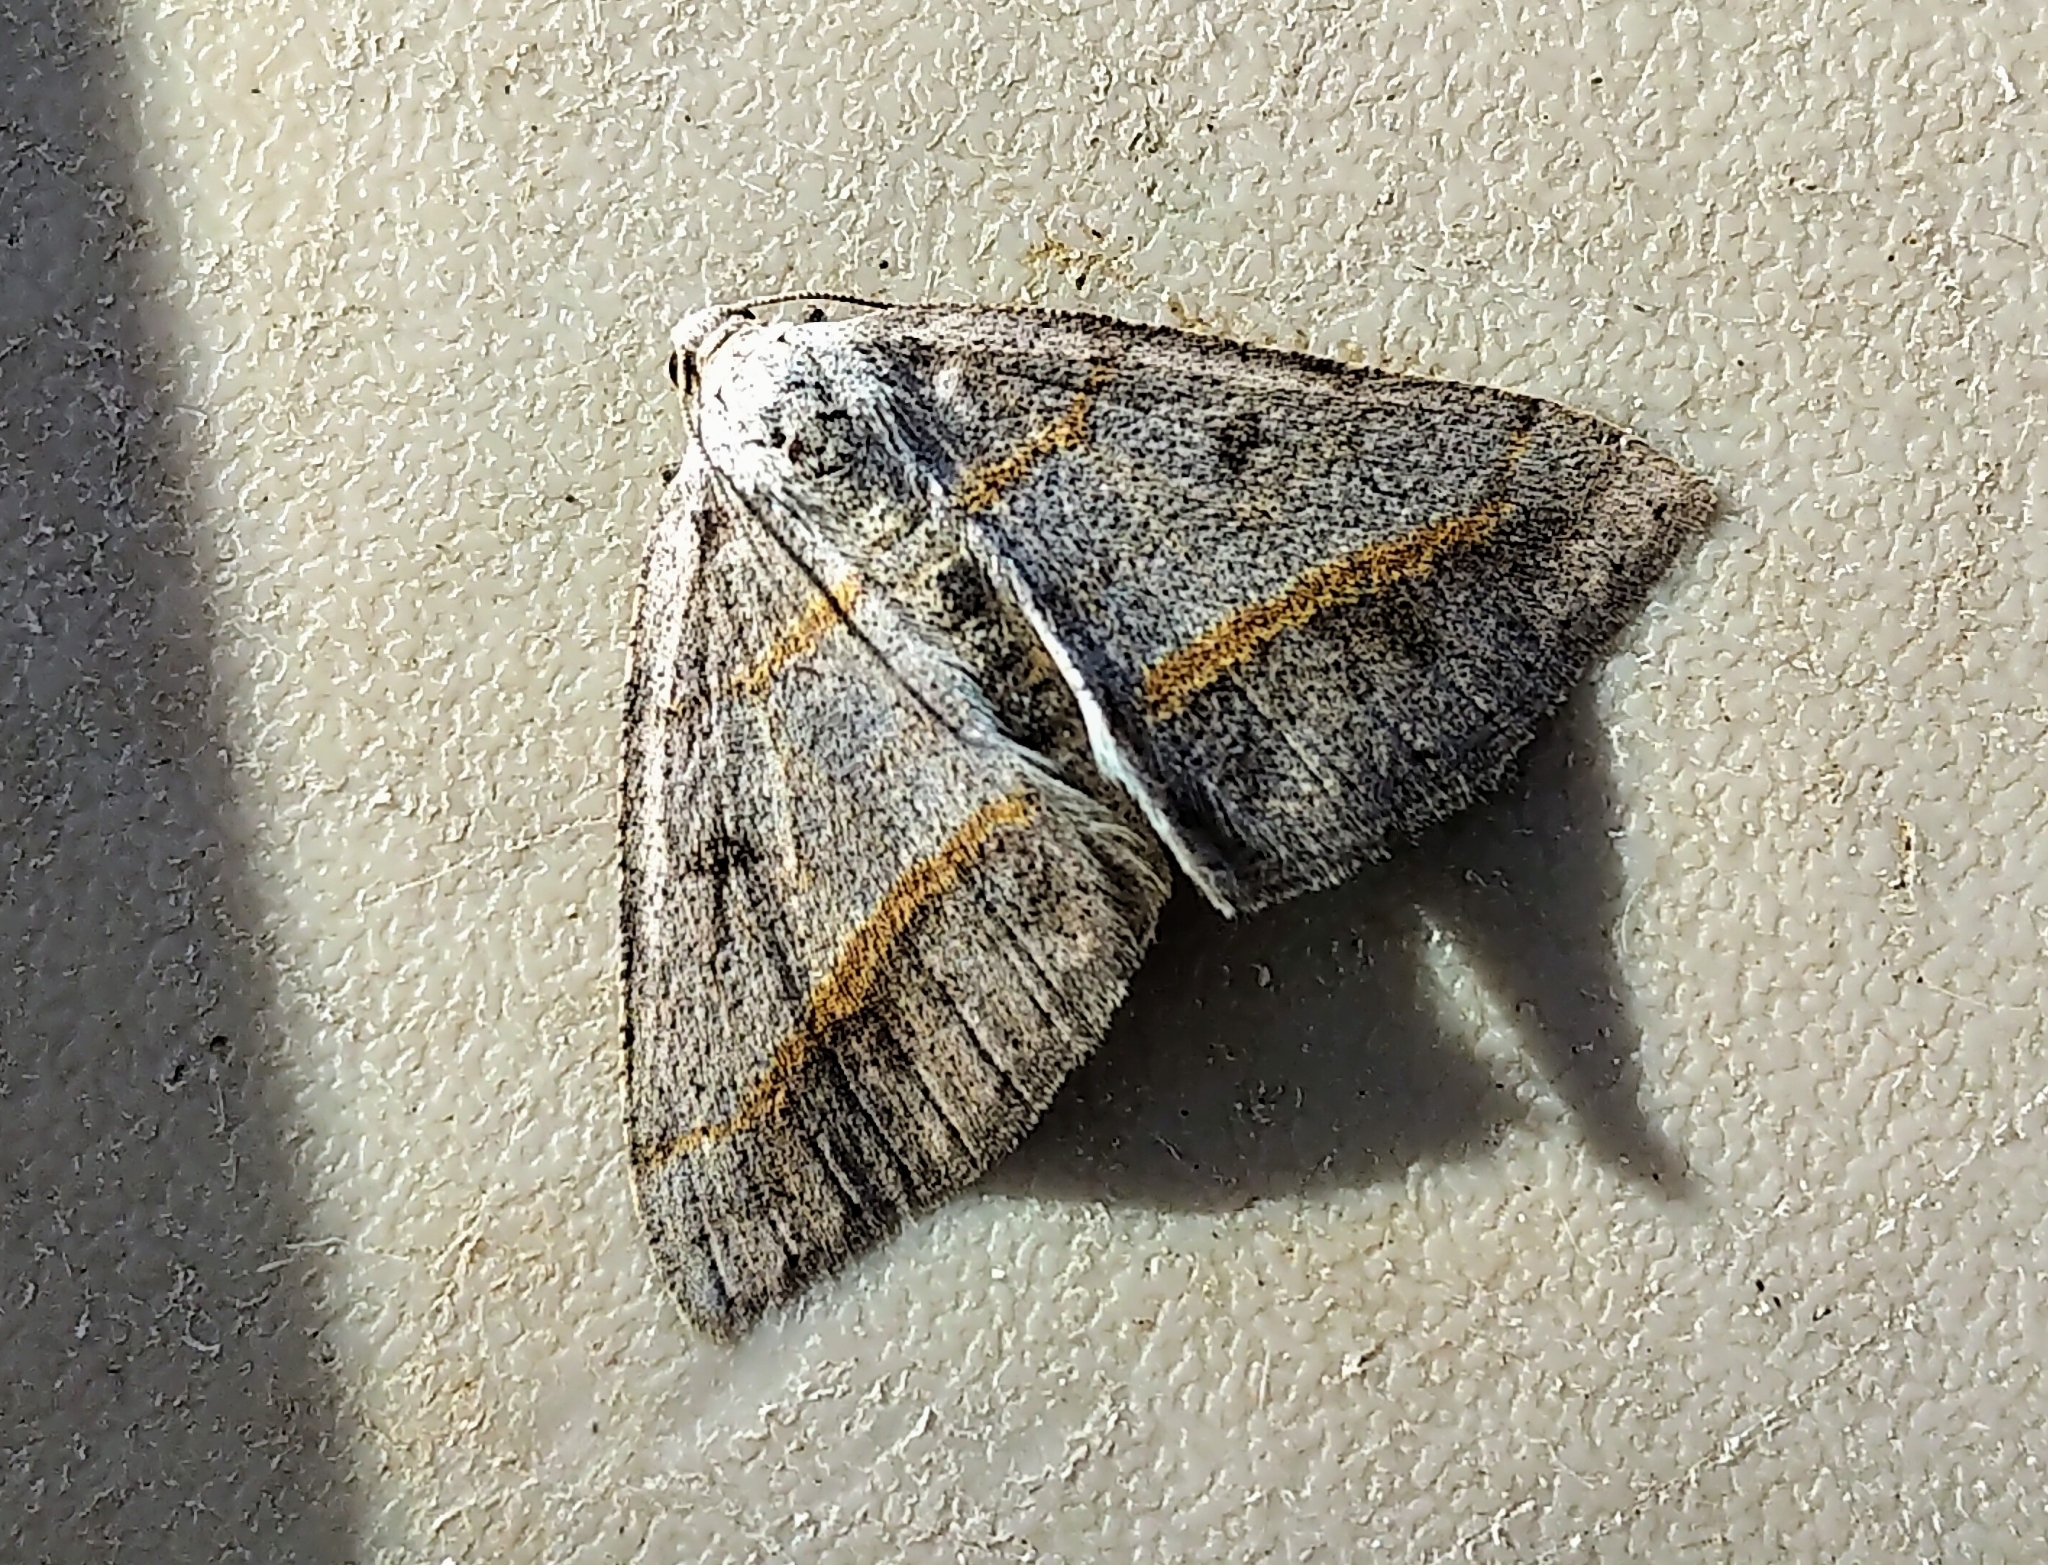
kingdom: Animalia
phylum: Arthropoda
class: Insecta
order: Lepidoptera
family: Geometridae
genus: Digrammia
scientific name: Digrammia neptaria
